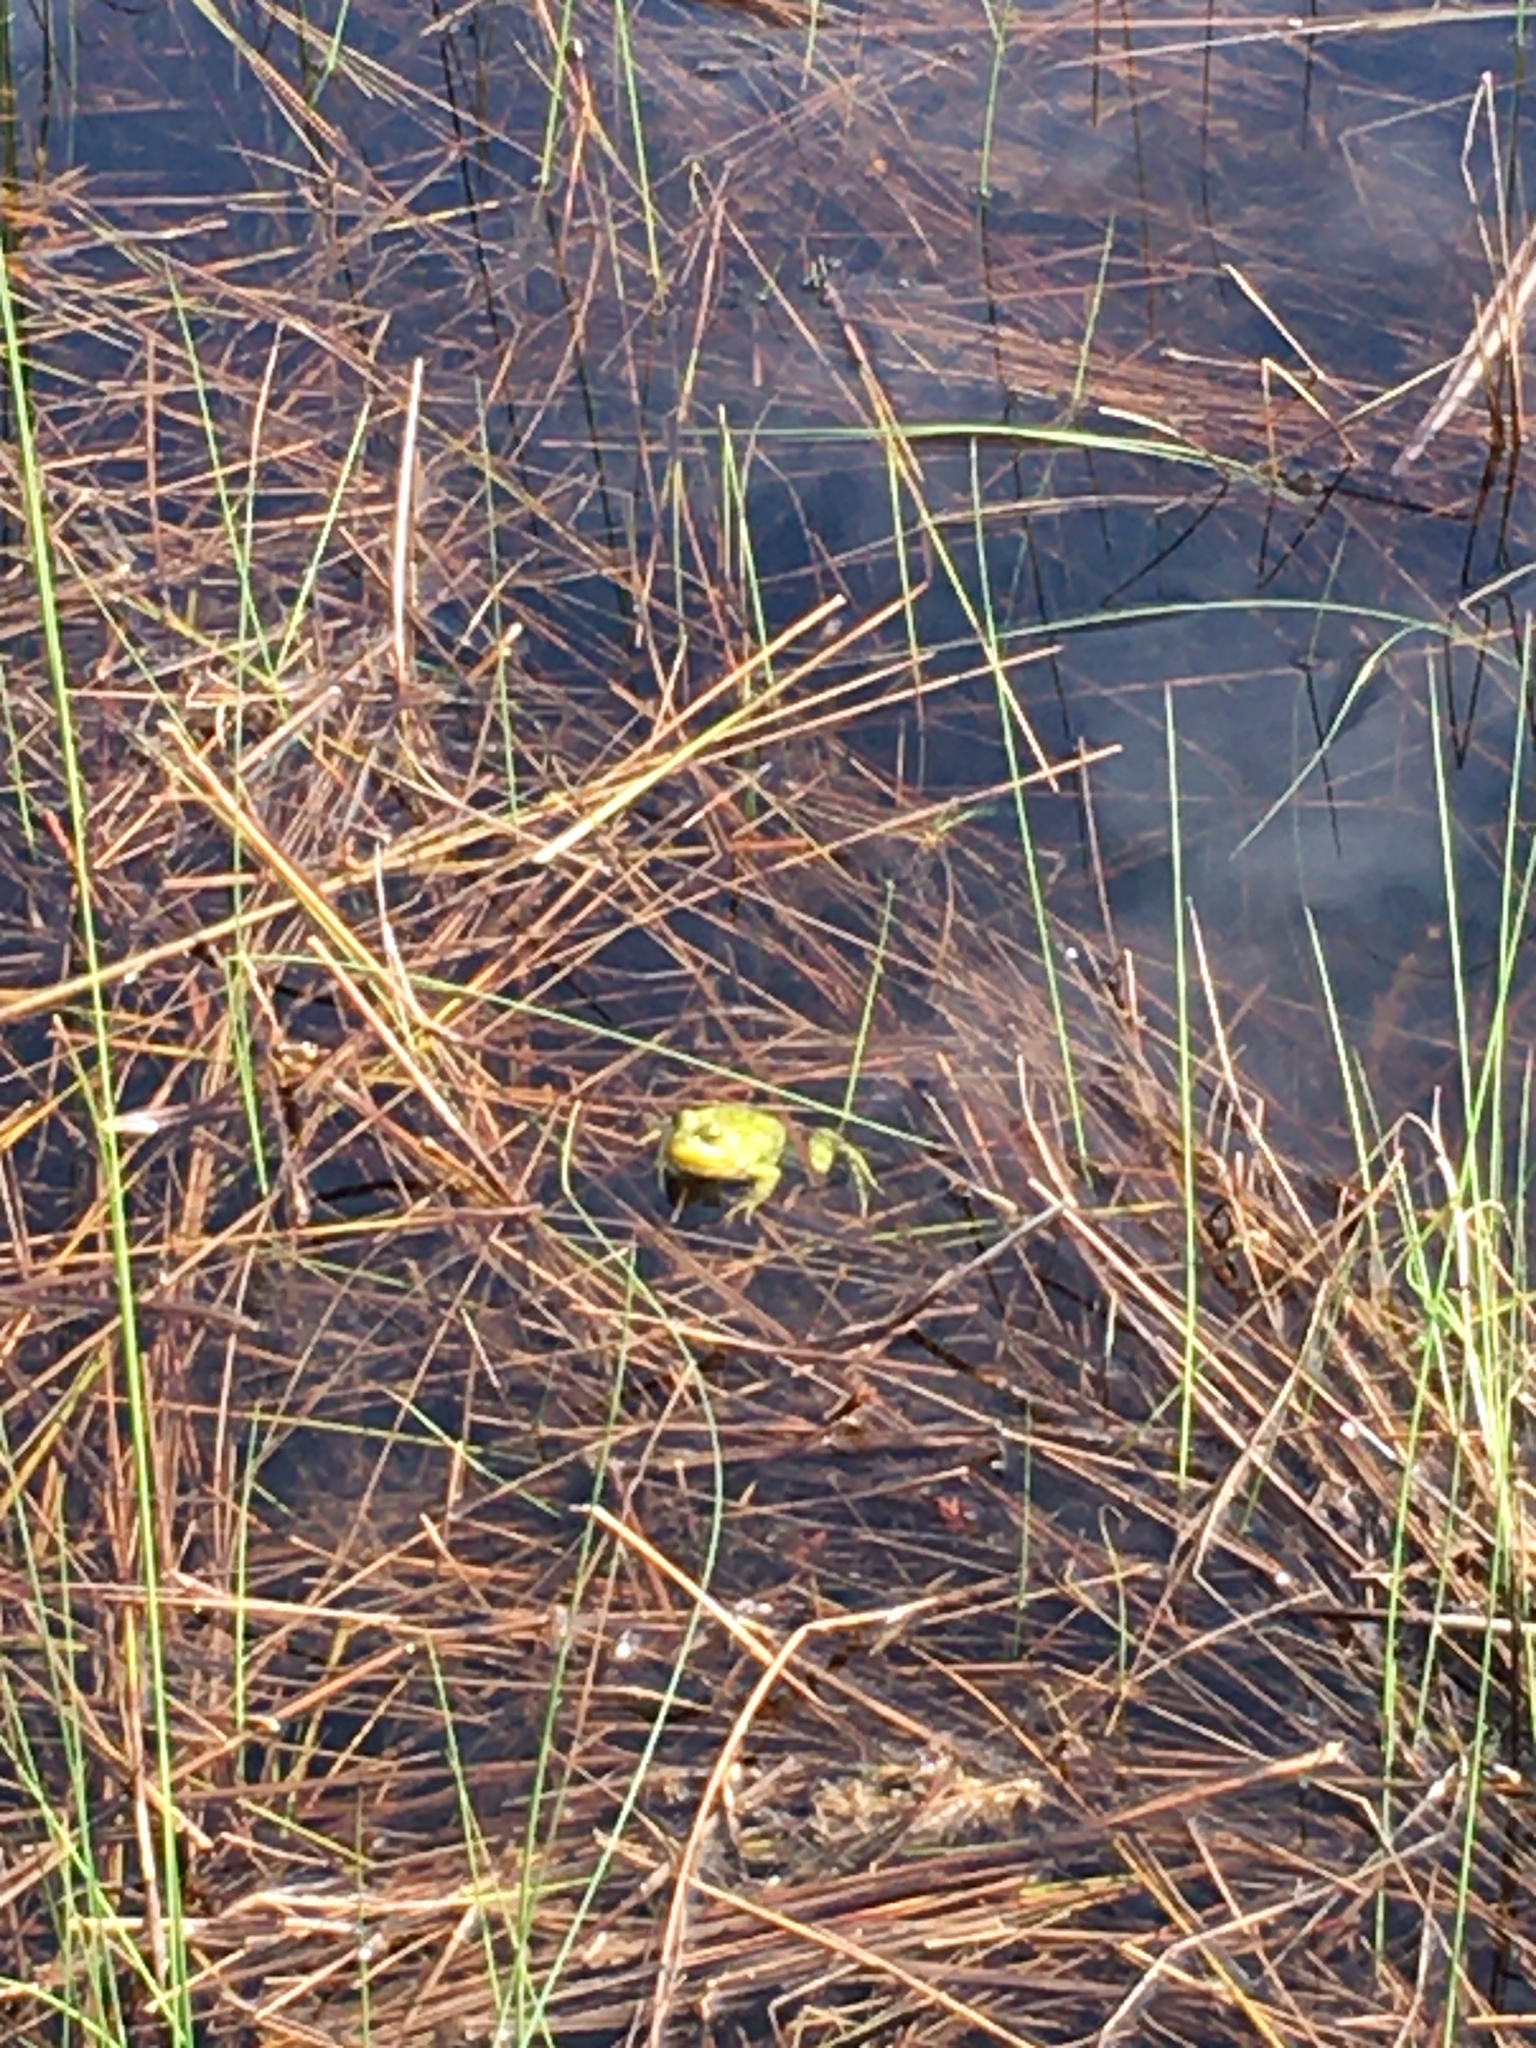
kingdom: Animalia
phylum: Chordata
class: Amphibia
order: Anura
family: Ranidae
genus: Lithobates
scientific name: Lithobates clamitans
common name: Green frog
